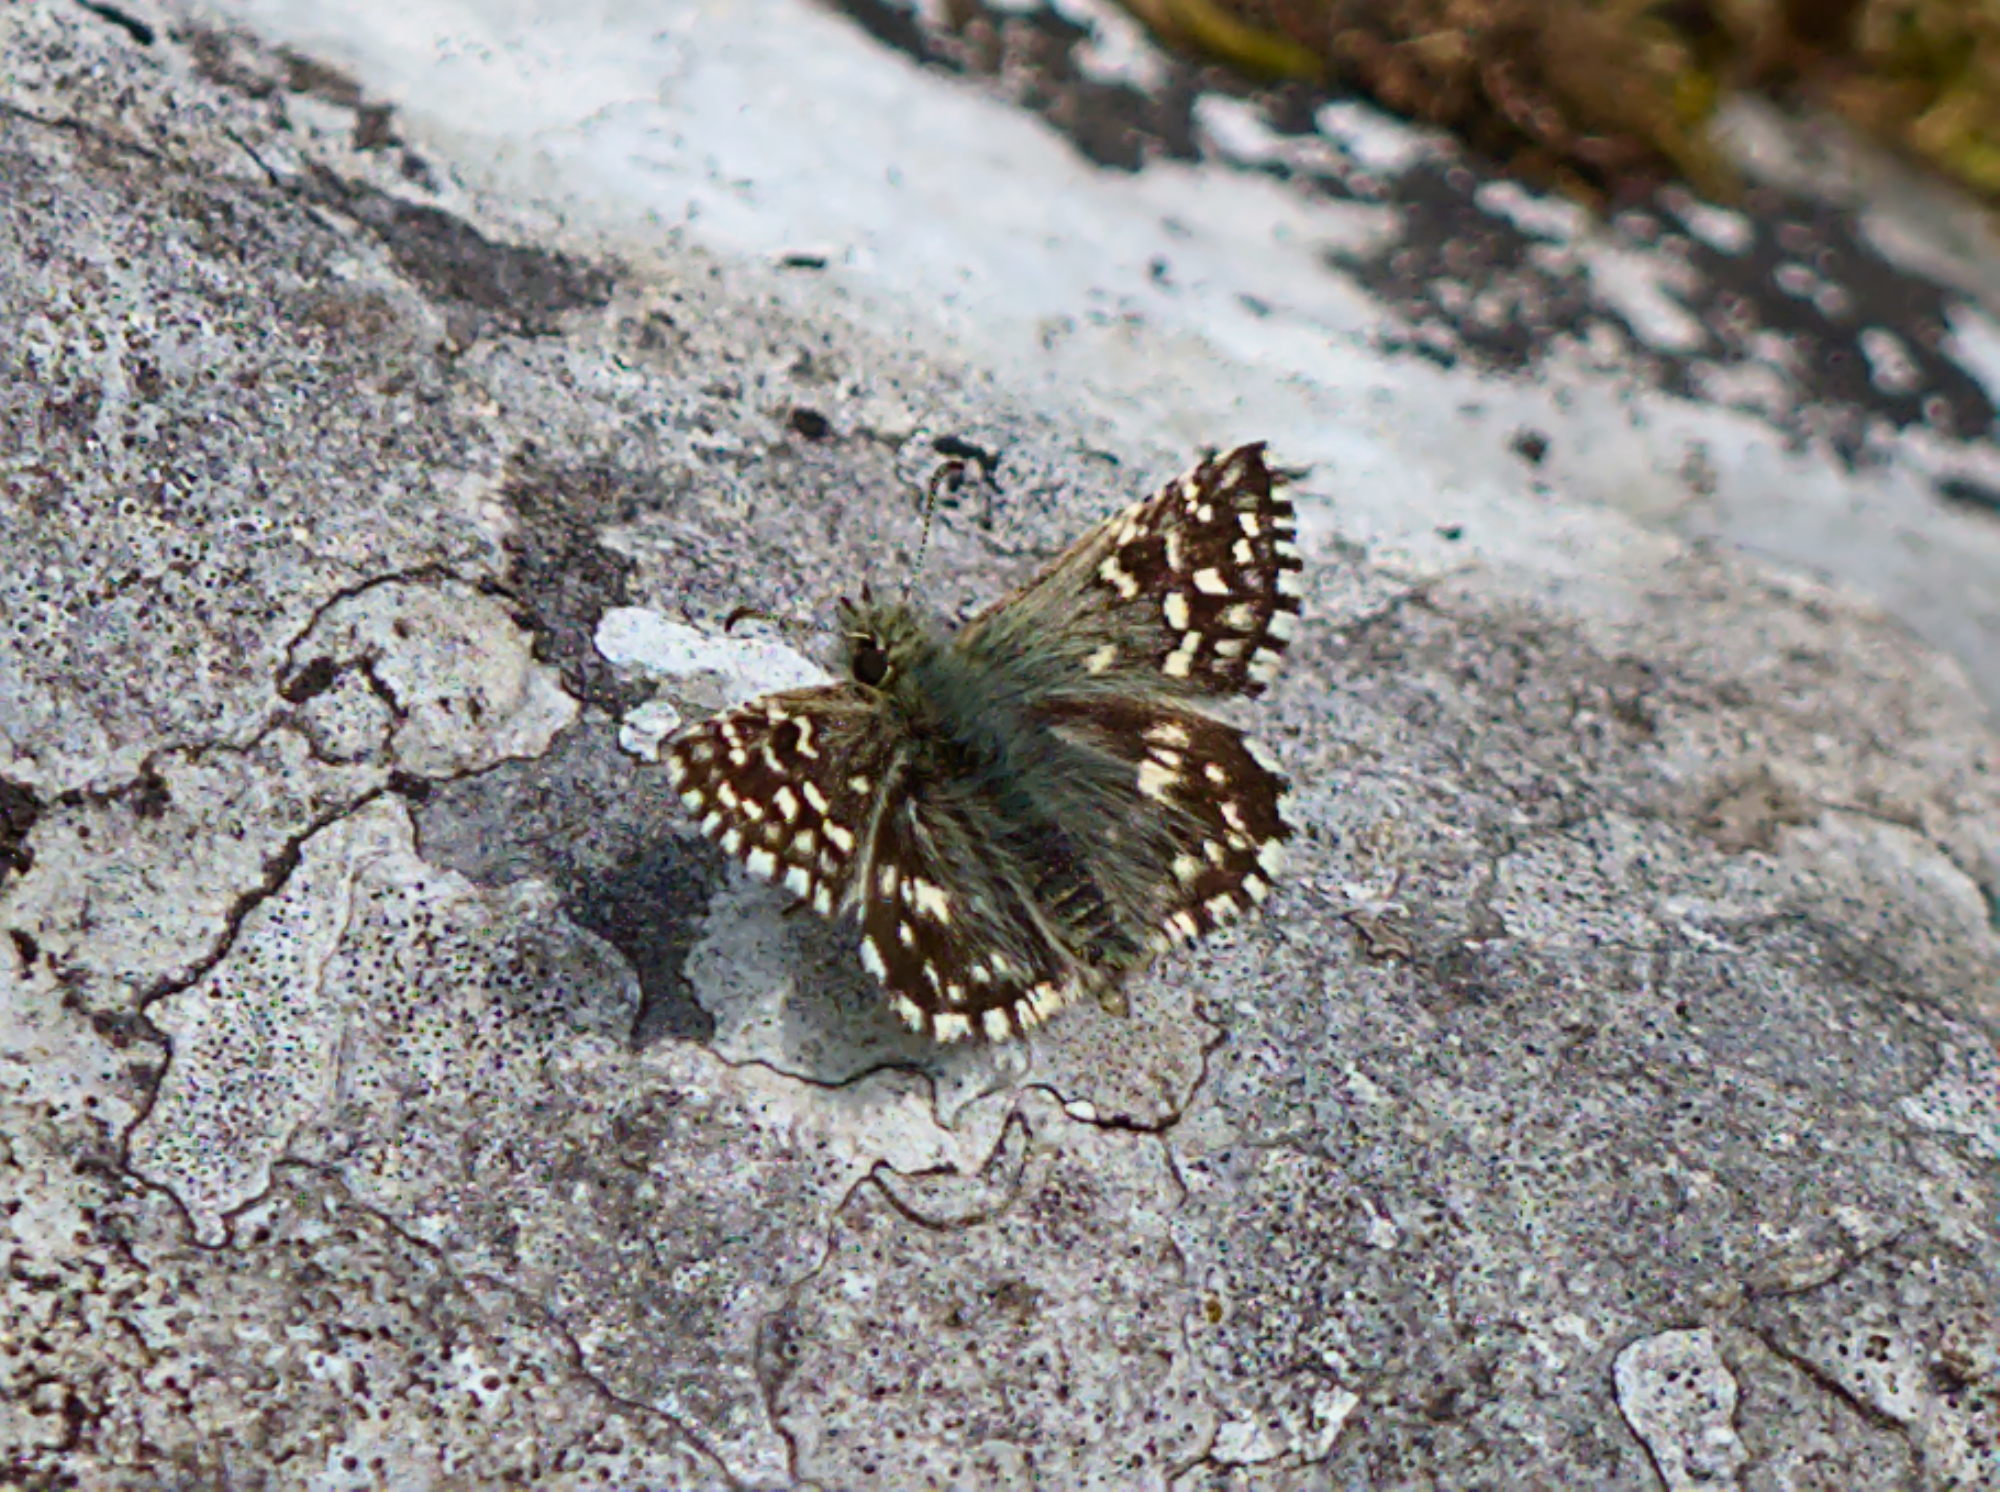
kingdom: Animalia
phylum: Arthropoda
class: Insecta
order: Lepidoptera
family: Hesperiidae
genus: Pyrgus
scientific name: Pyrgus malvae
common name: Grizzled skipper
